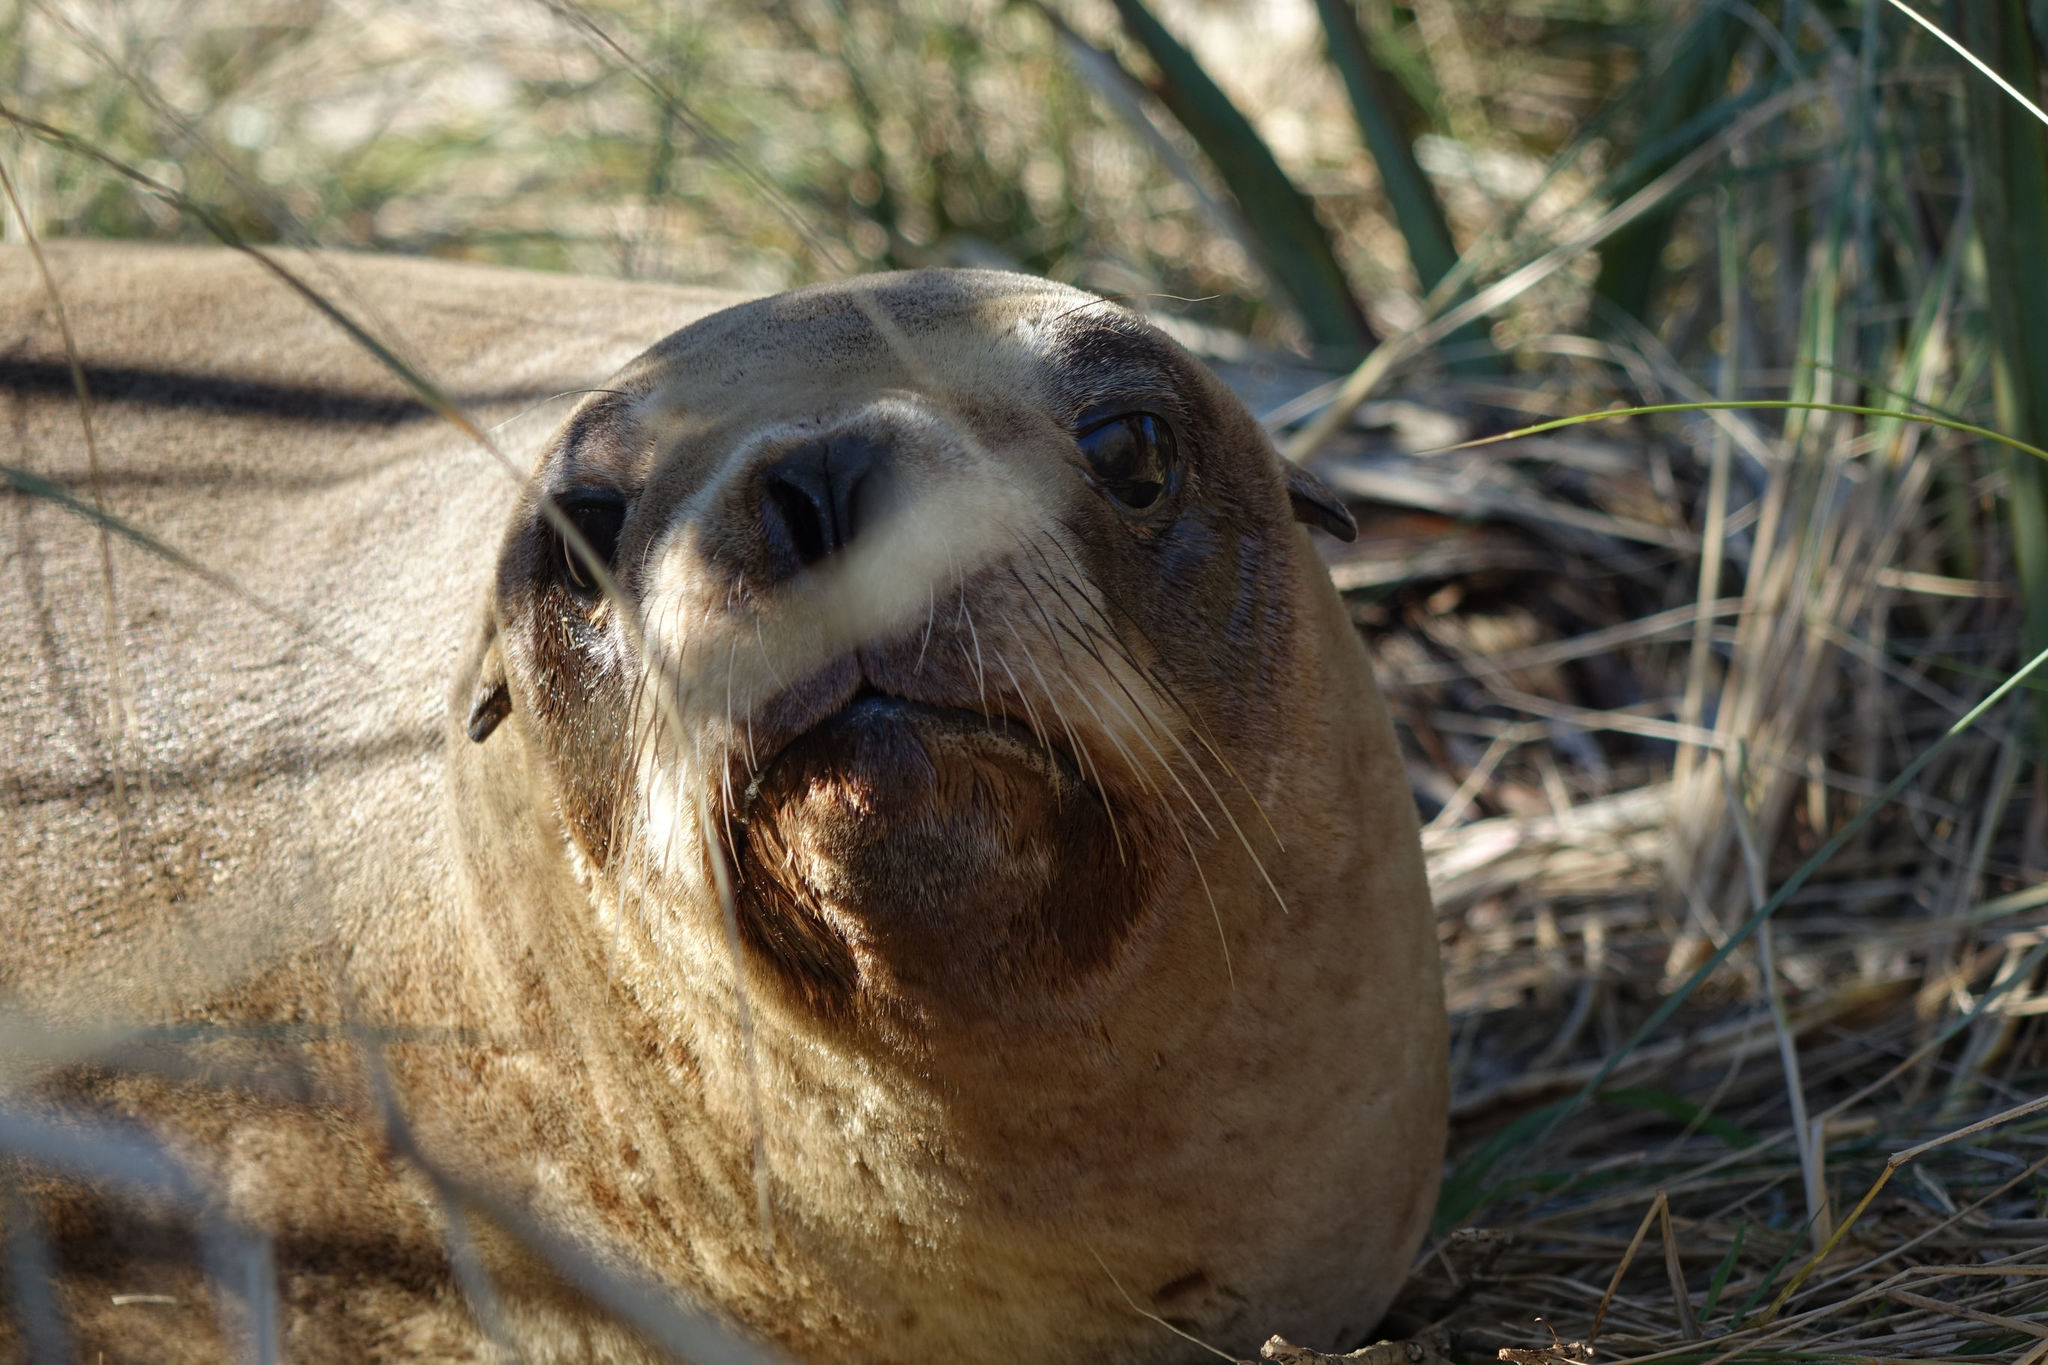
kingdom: Animalia
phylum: Chordata
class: Mammalia
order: Carnivora
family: Otariidae
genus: Phocarctos
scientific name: Phocarctos hookeri
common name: New zealand sea lion
